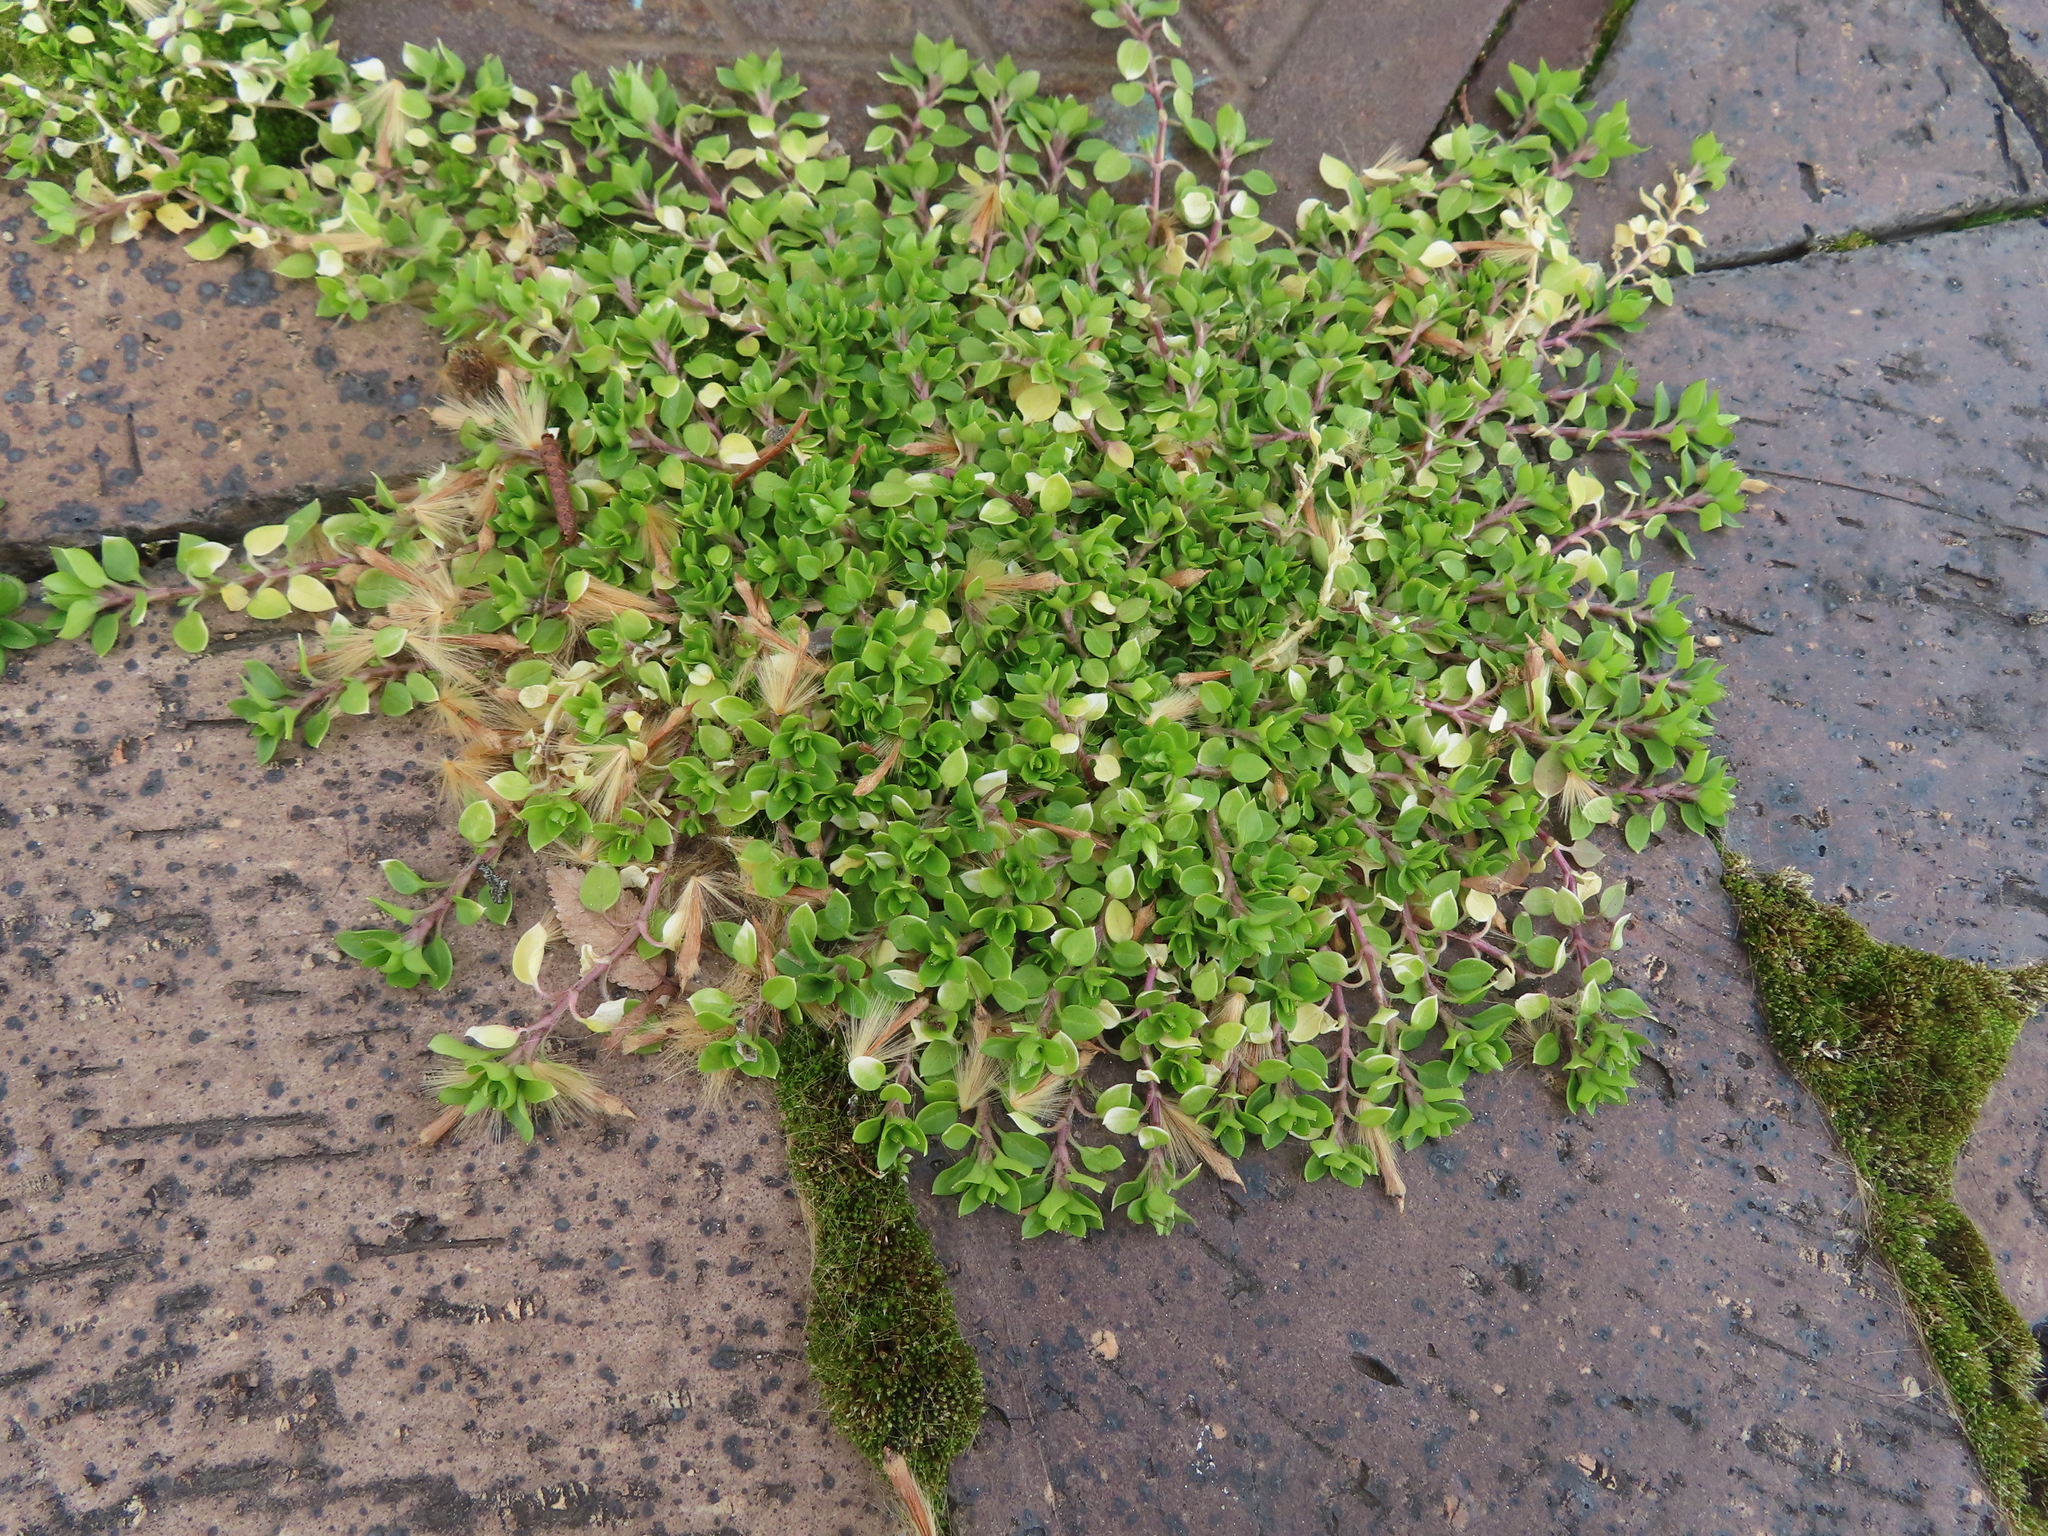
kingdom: Plantae
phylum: Tracheophyta
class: Magnoliopsida
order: Caryophyllales
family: Caryophyllaceae
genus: Stellaria
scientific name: Stellaria media
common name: Common chickweed
